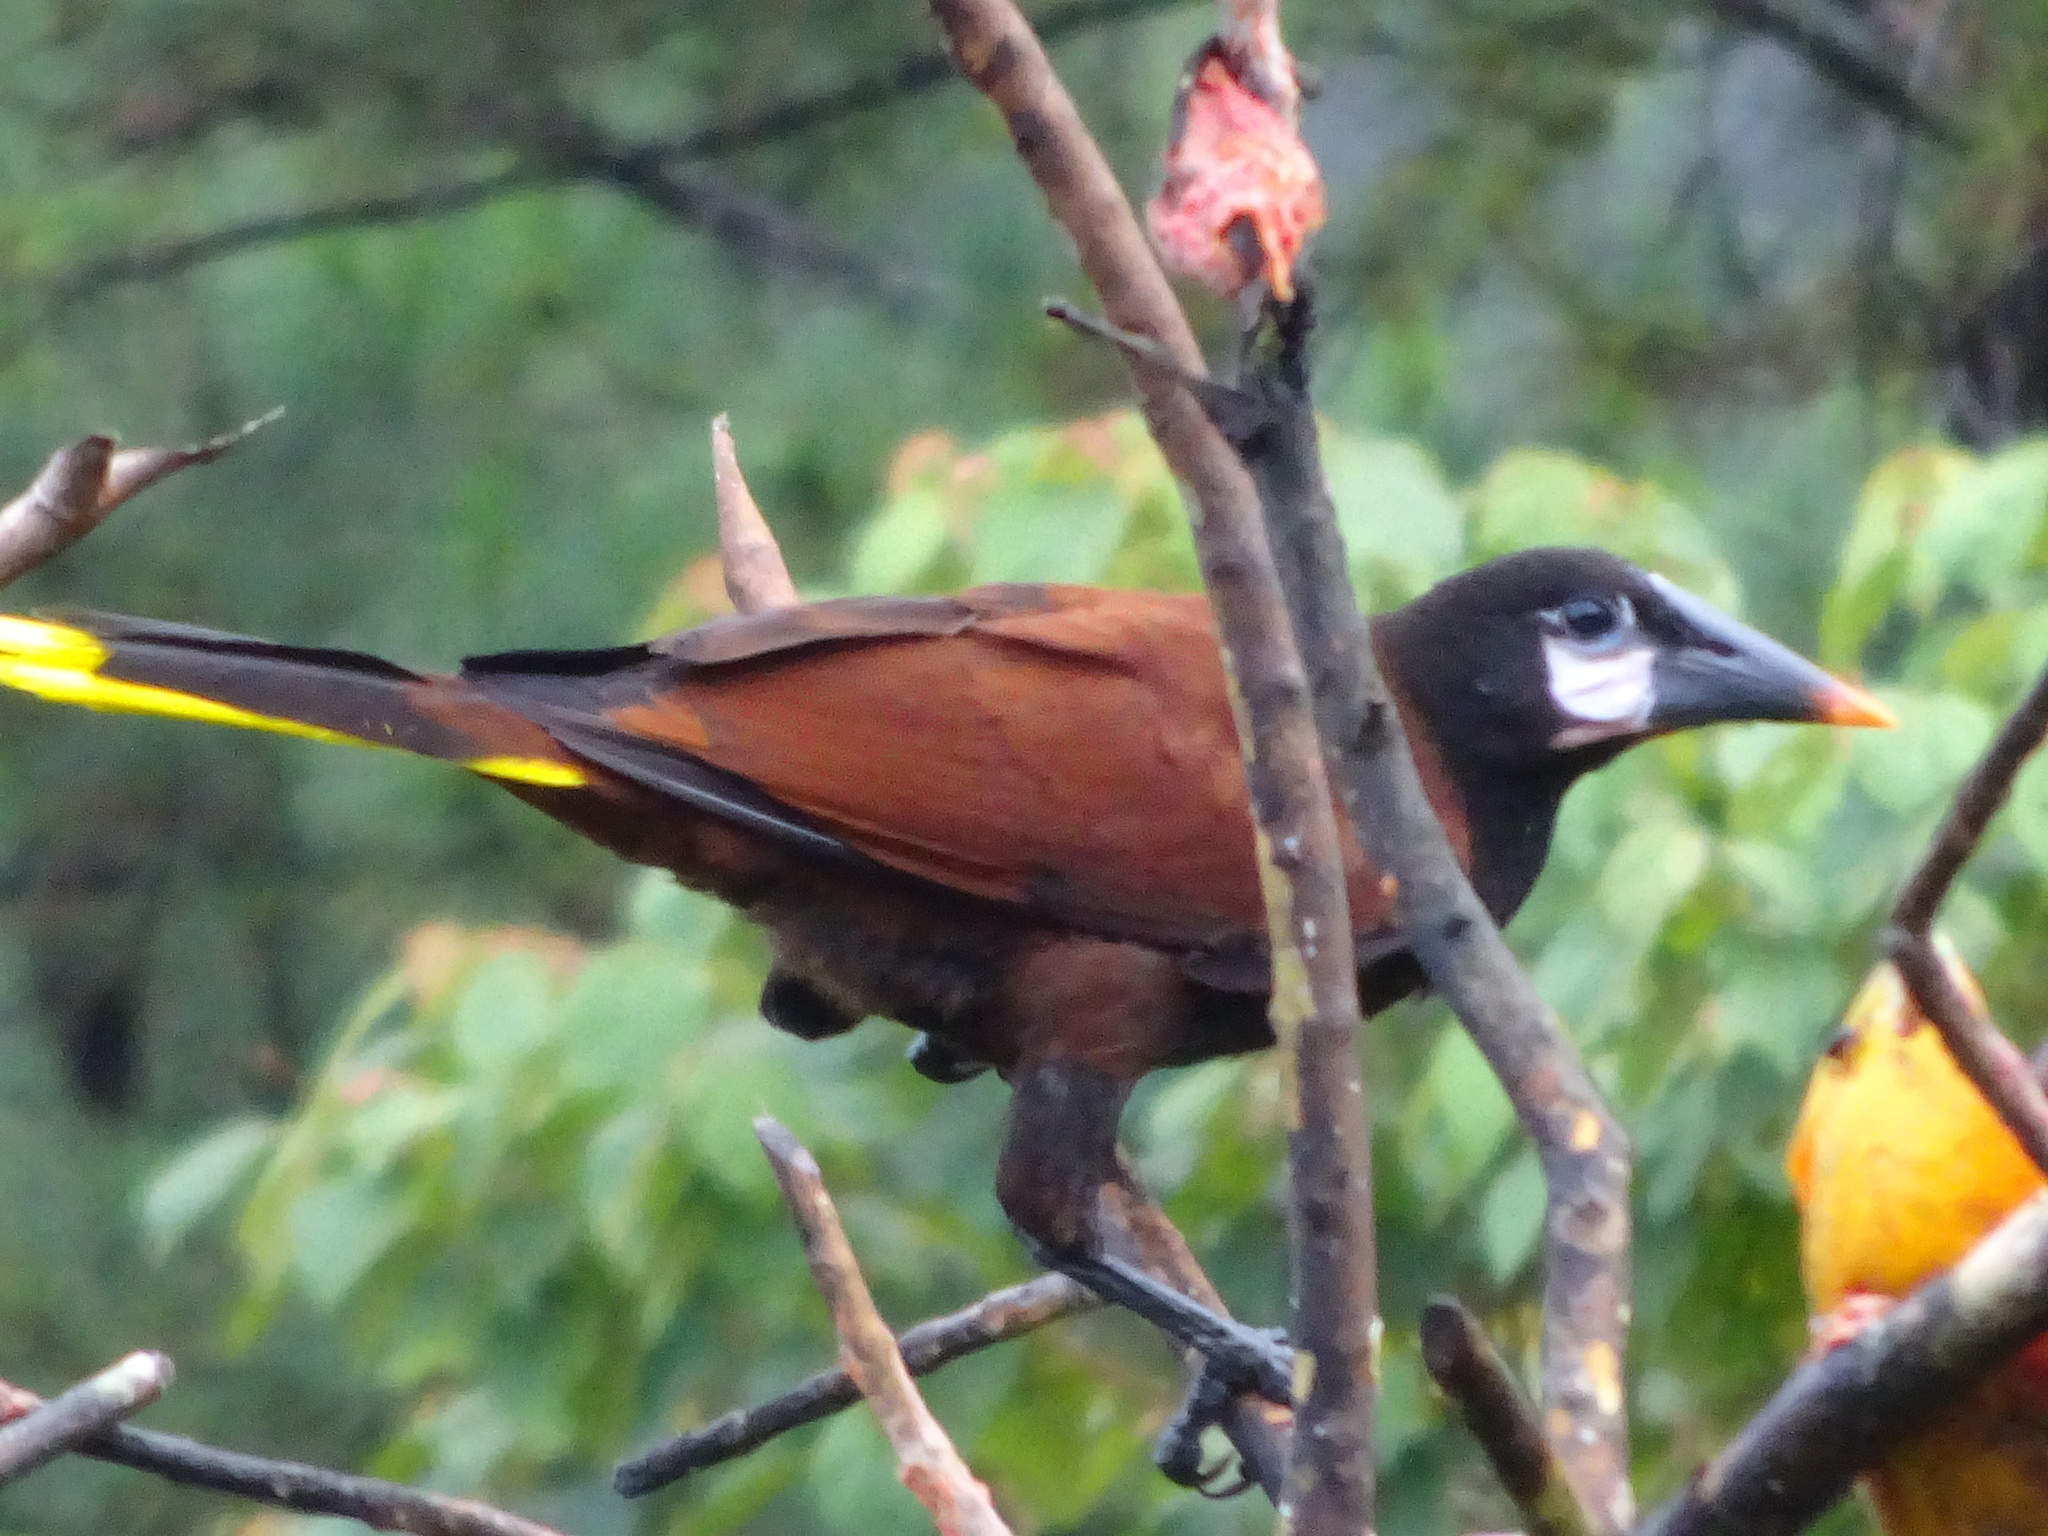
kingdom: Animalia
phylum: Chordata
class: Aves
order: Passeriformes
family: Icteridae
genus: Psarocolius
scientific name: Psarocolius montezuma
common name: Montezuma oropendola
